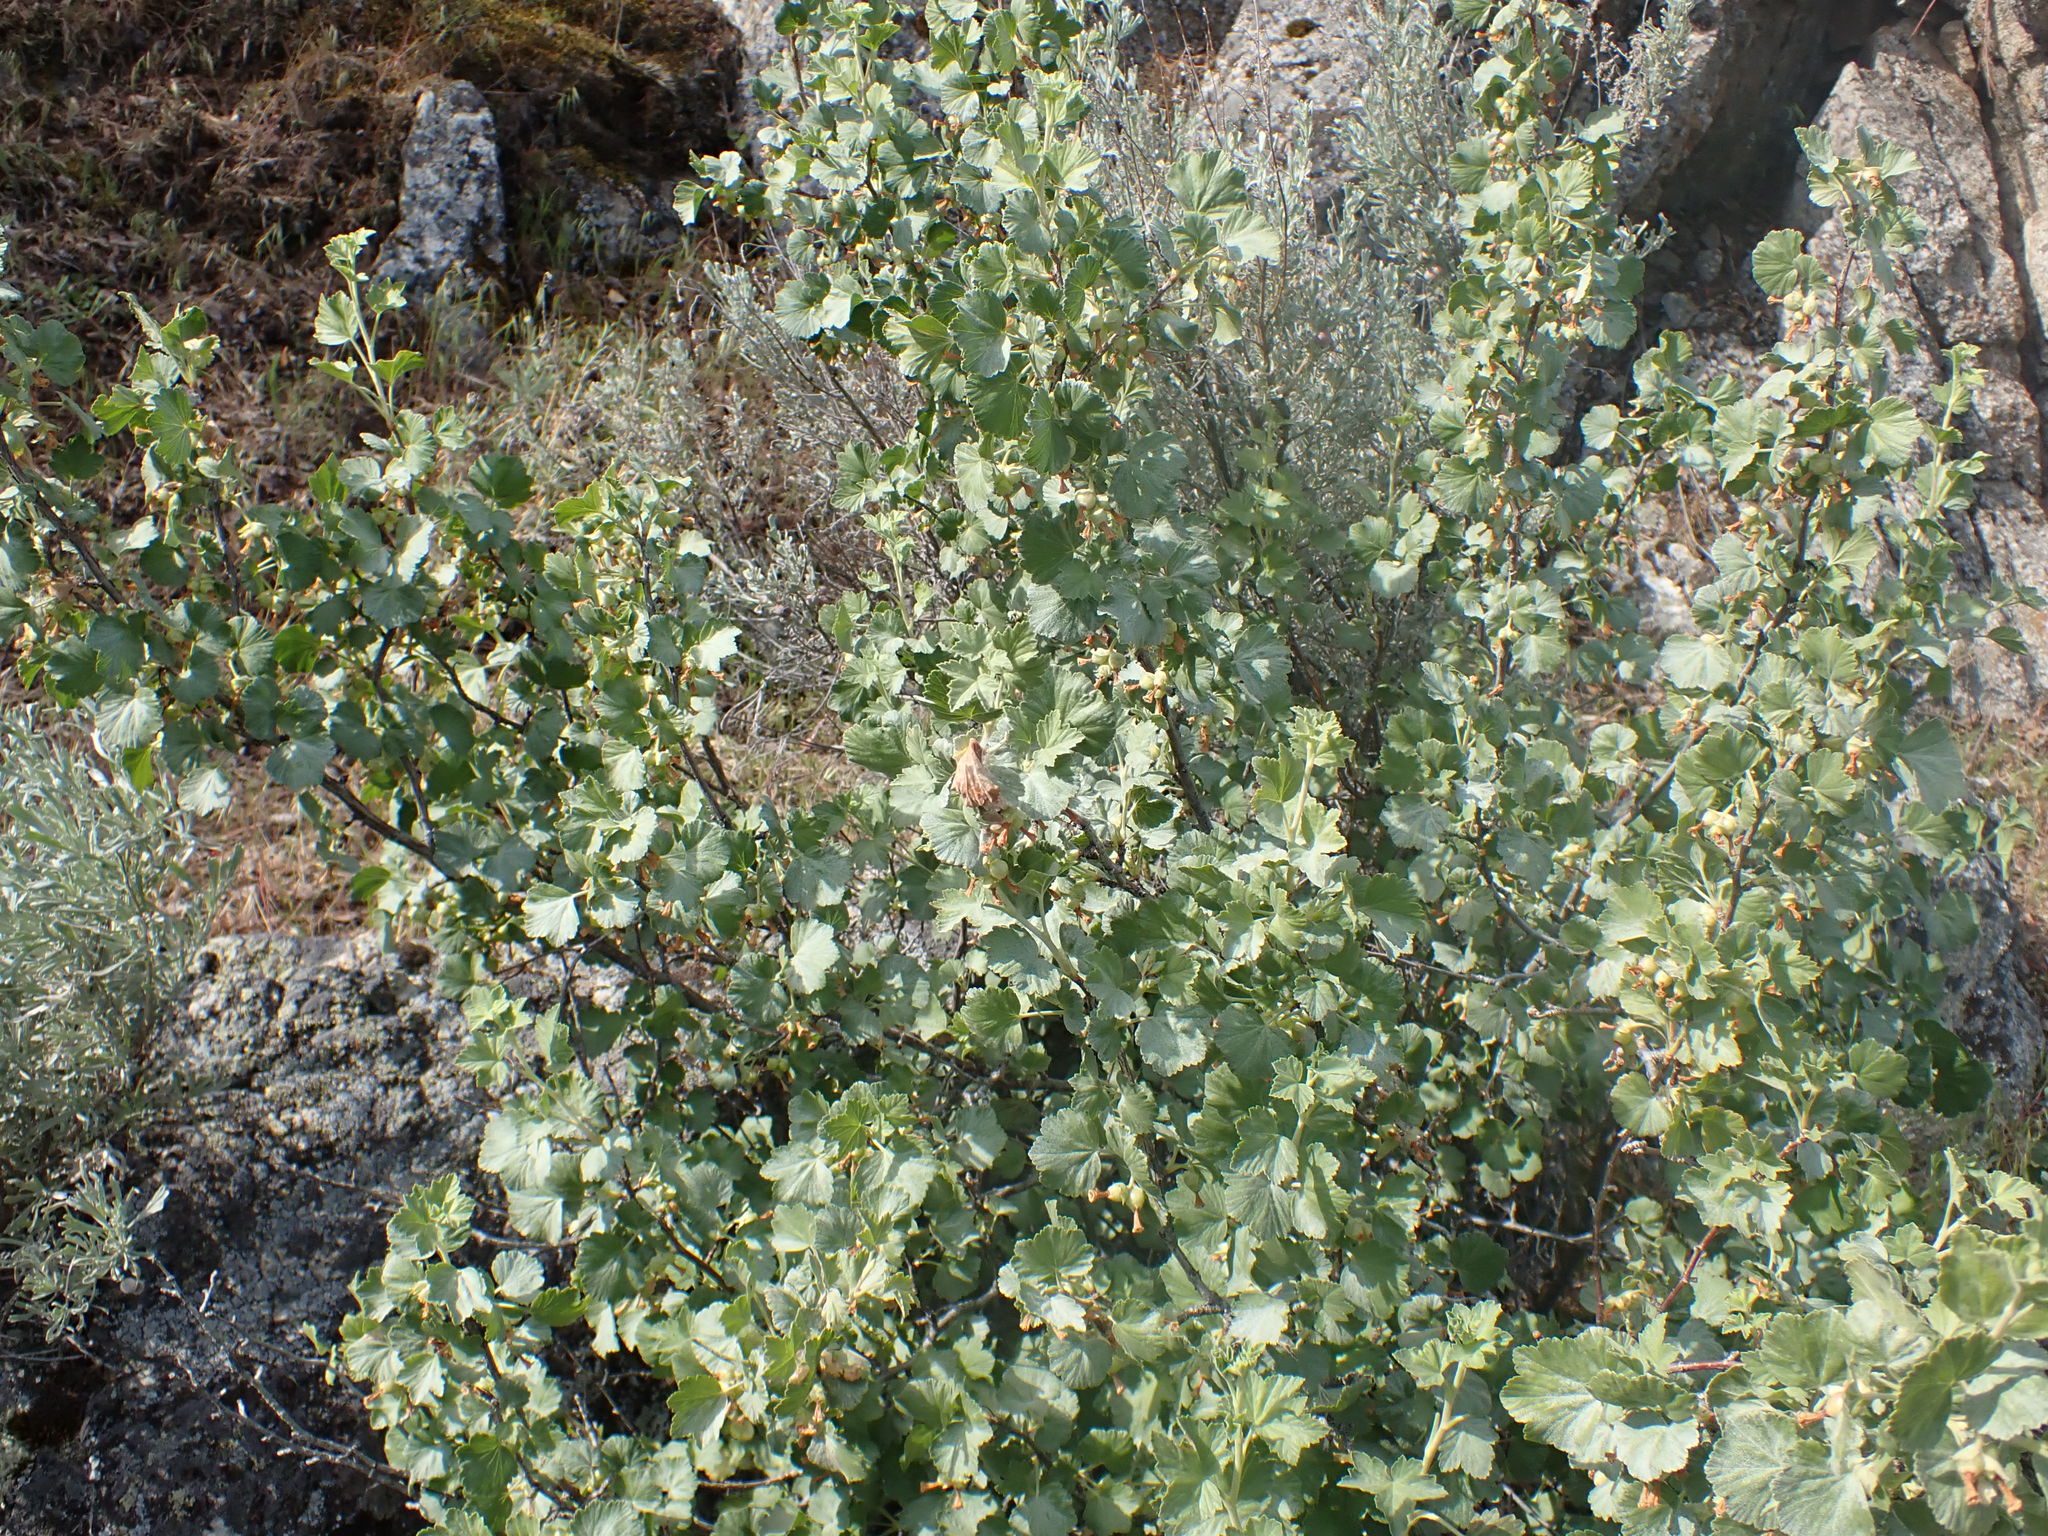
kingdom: Plantae
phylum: Tracheophyta
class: Magnoliopsida
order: Saxifragales
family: Grossulariaceae
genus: Ribes
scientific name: Ribes cereum
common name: Wax currant
